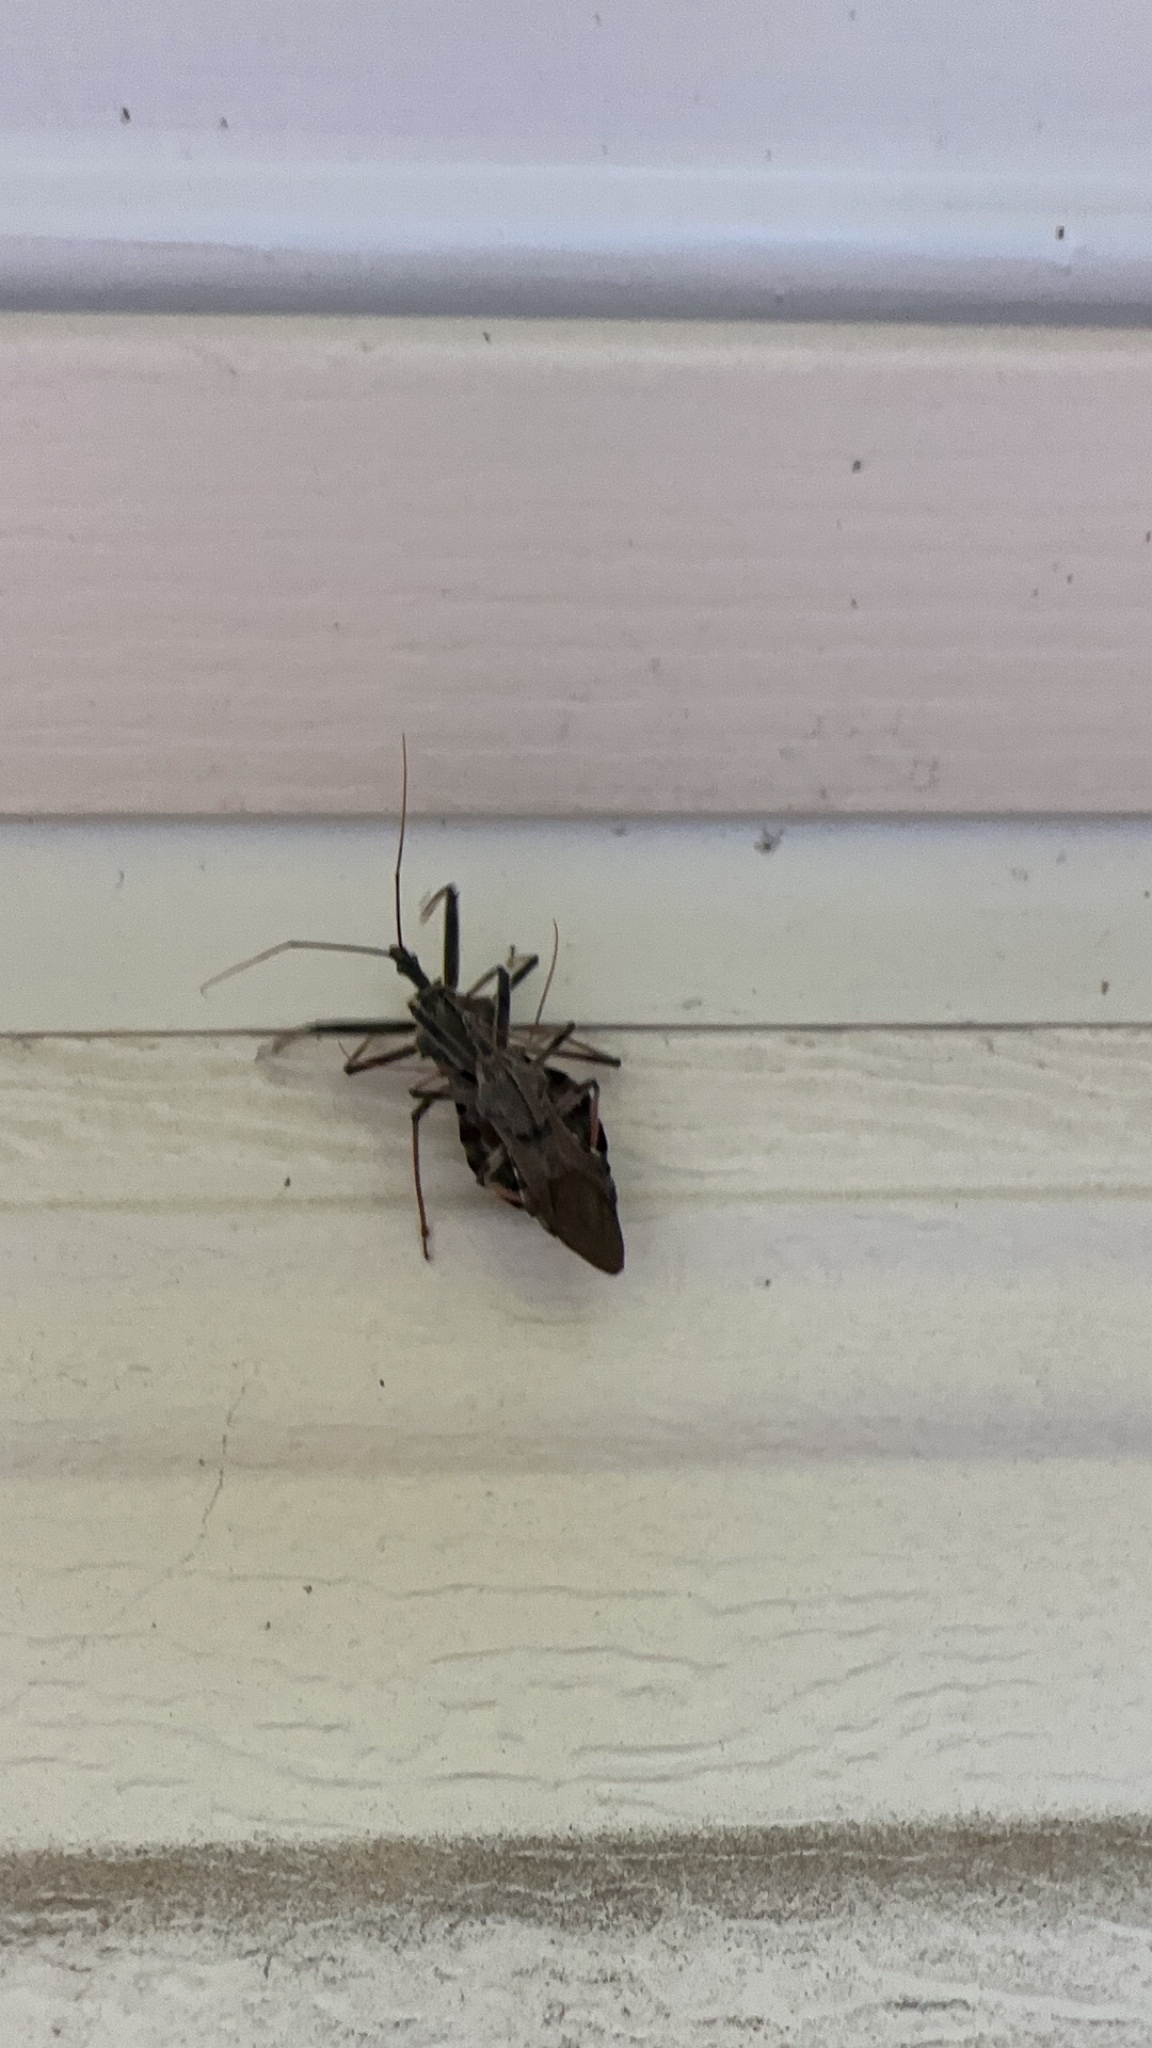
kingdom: Animalia
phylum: Arthropoda
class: Insecta
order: Hemiptera
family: Reduviidae
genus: Arilus
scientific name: Arilus cristatus
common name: North american wheel bug
